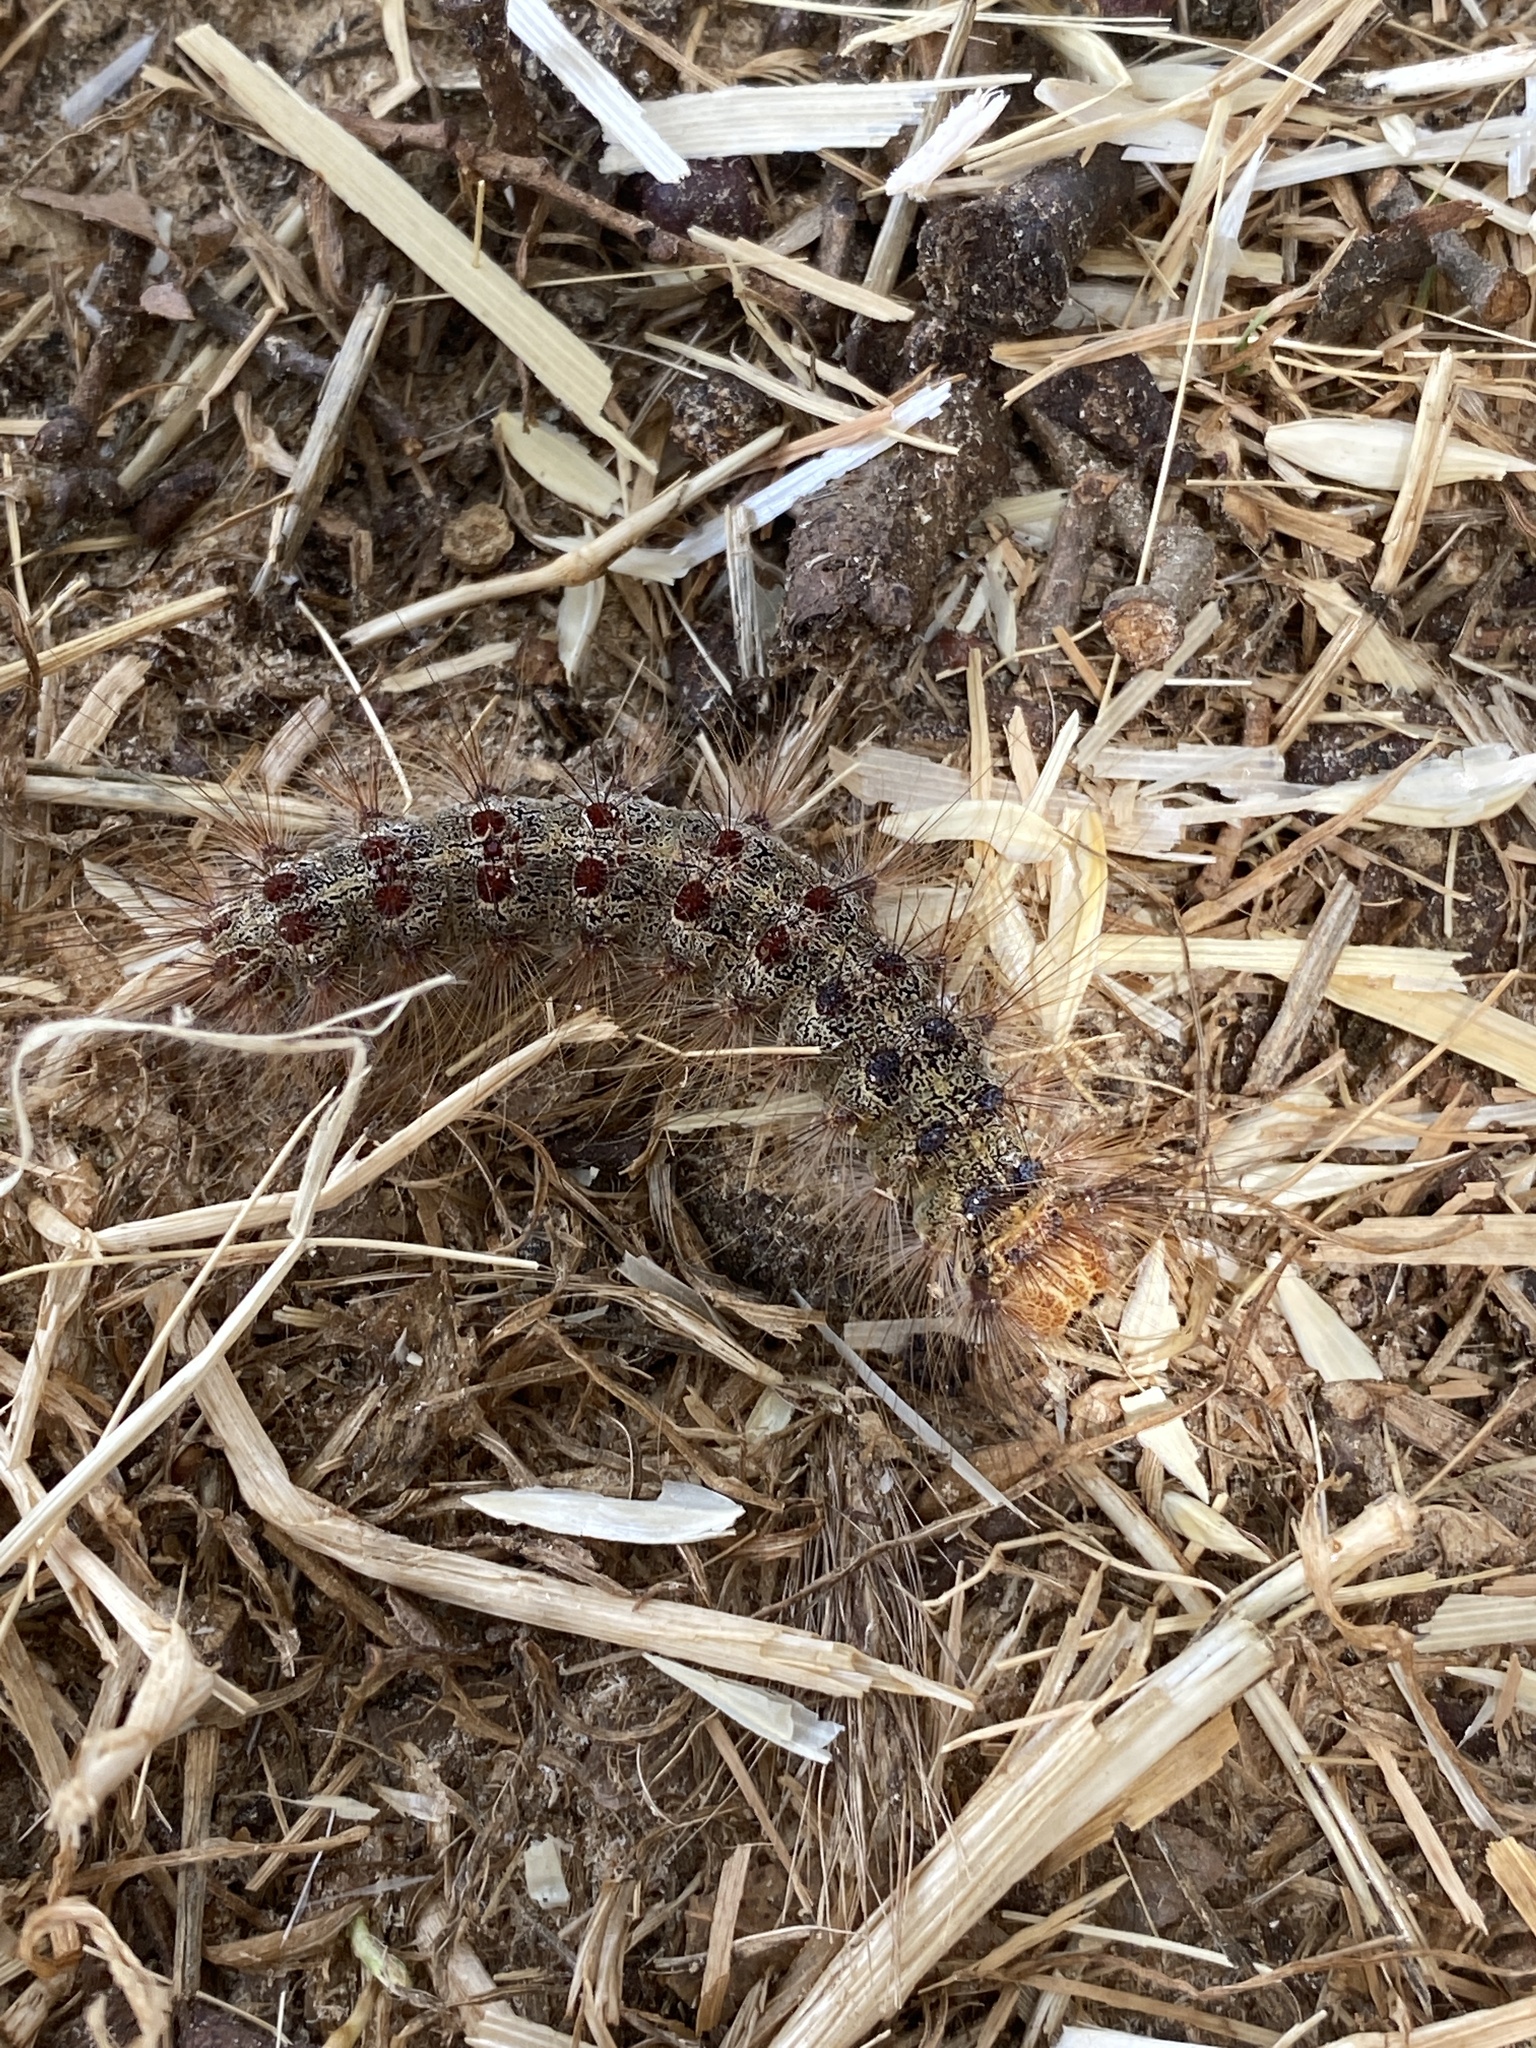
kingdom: Animalia
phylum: Arthropoda
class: Insecta
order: Lepidoptera
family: Erebidae
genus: Lymantria
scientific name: Lymantria dispar
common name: Gypsy moth
